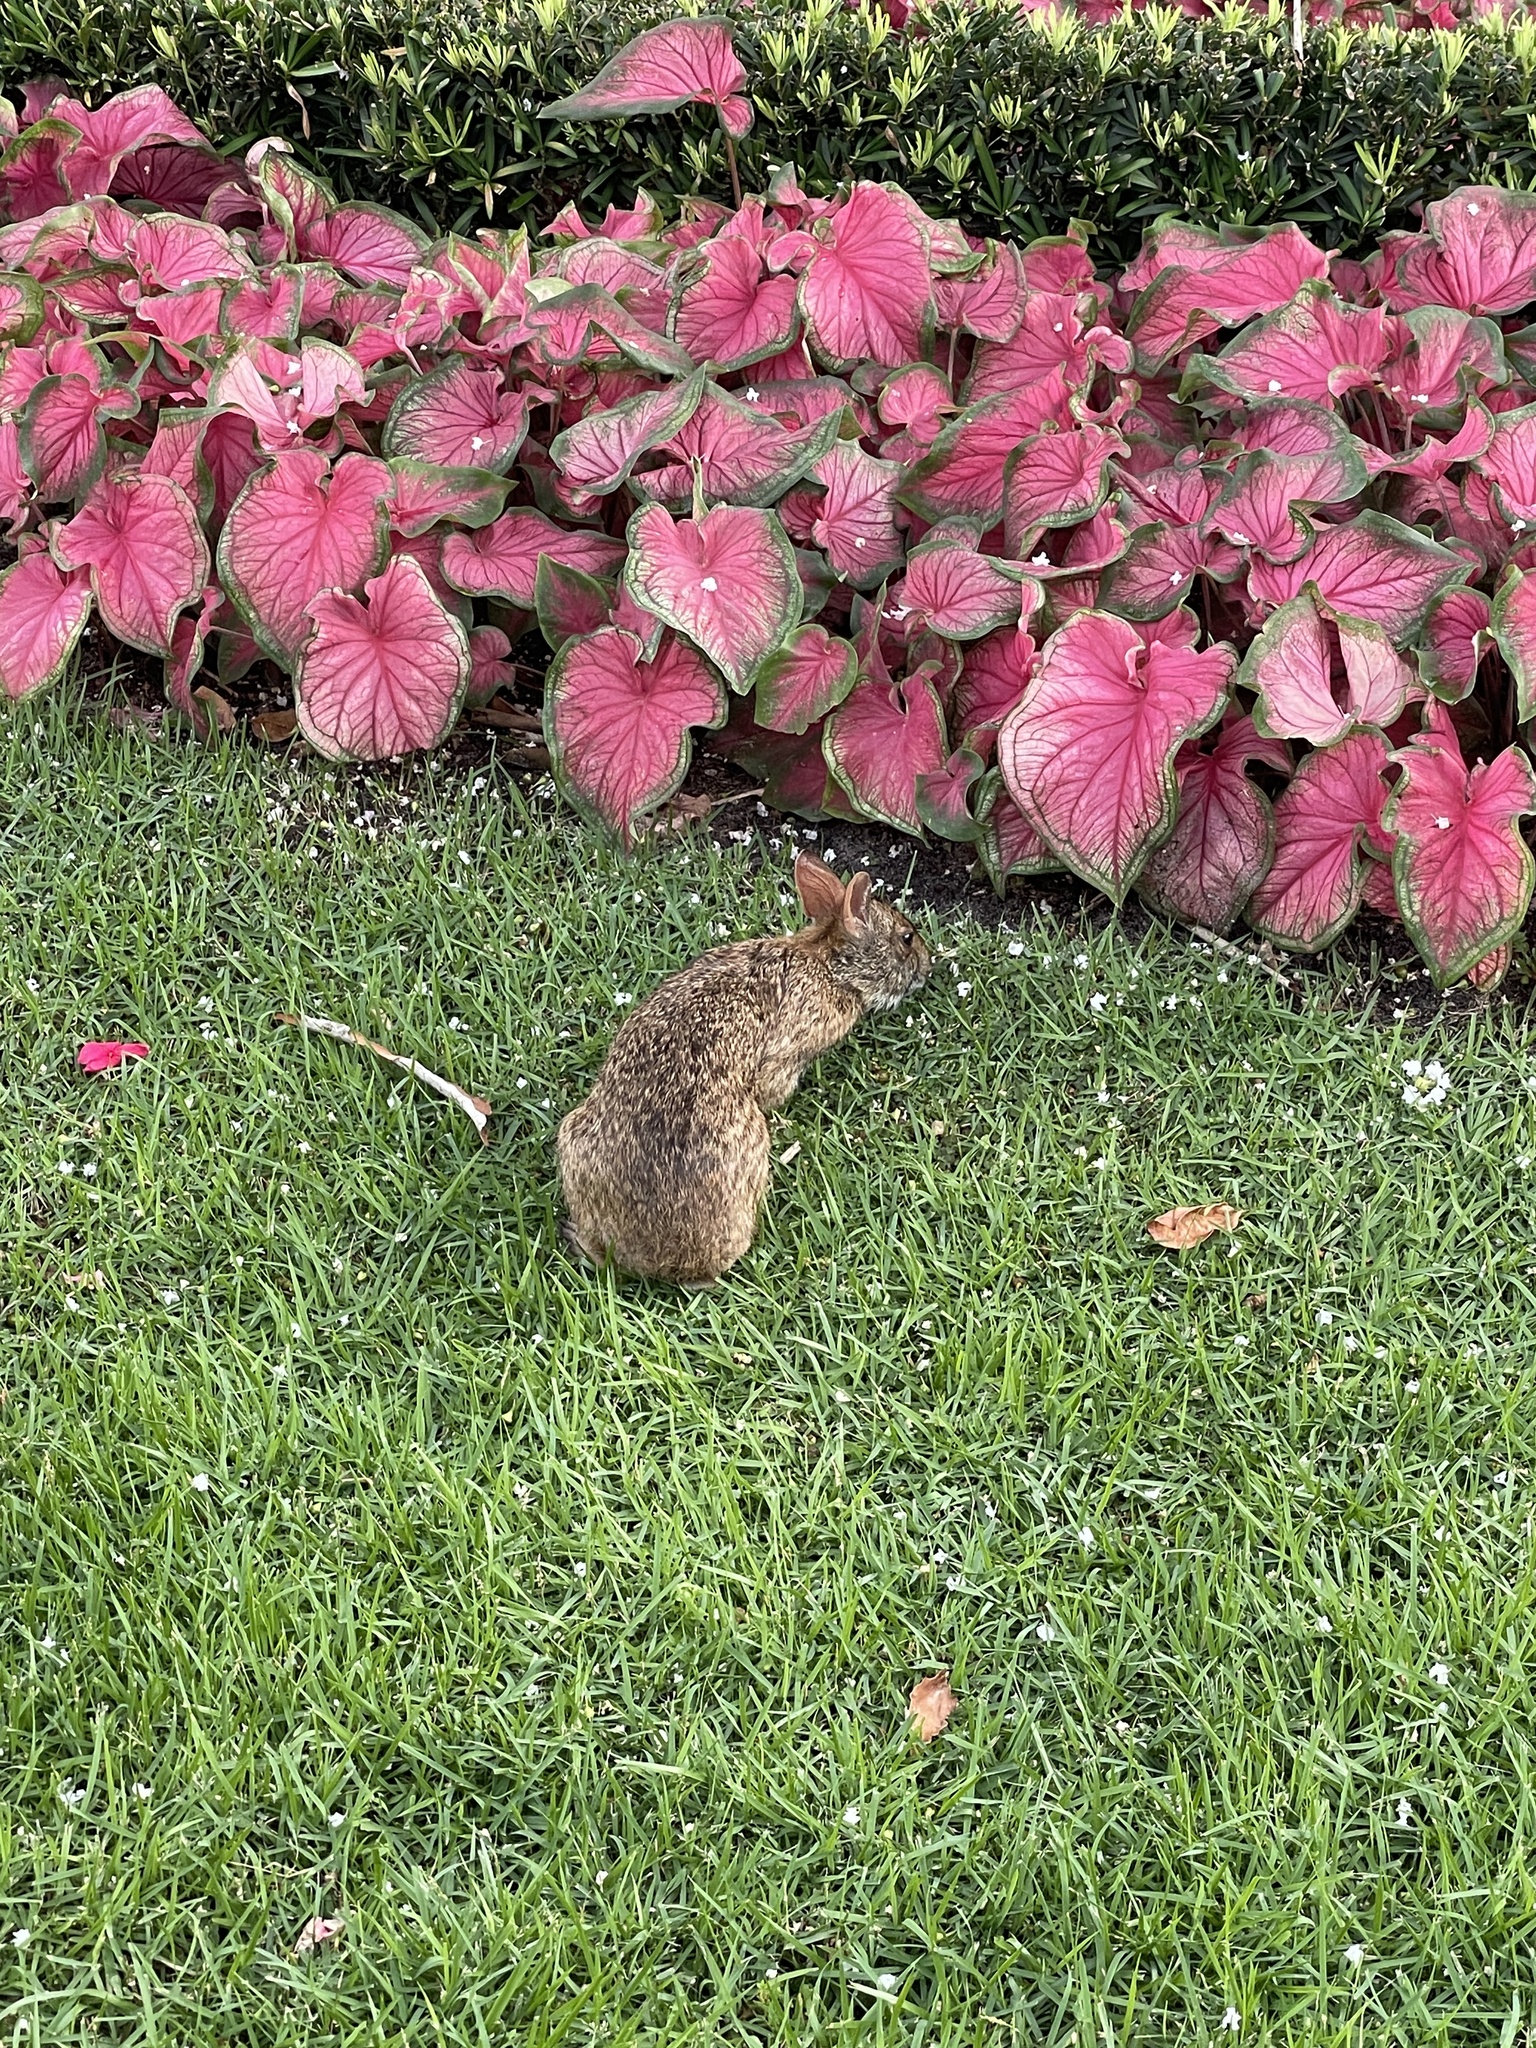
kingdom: Animalia
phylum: Chordata
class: Mammalia
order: Lagomorpha
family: Leporidae
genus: Sylvilagus
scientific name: Sylvilagus palustris
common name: Marsh rabbit
